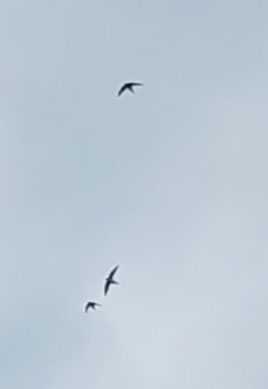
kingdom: Animalia
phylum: Chordata
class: Aves
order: Apodiformes
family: Apodidae
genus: Tachymarptis
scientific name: Tachymarptis melba
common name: Alpine swift
